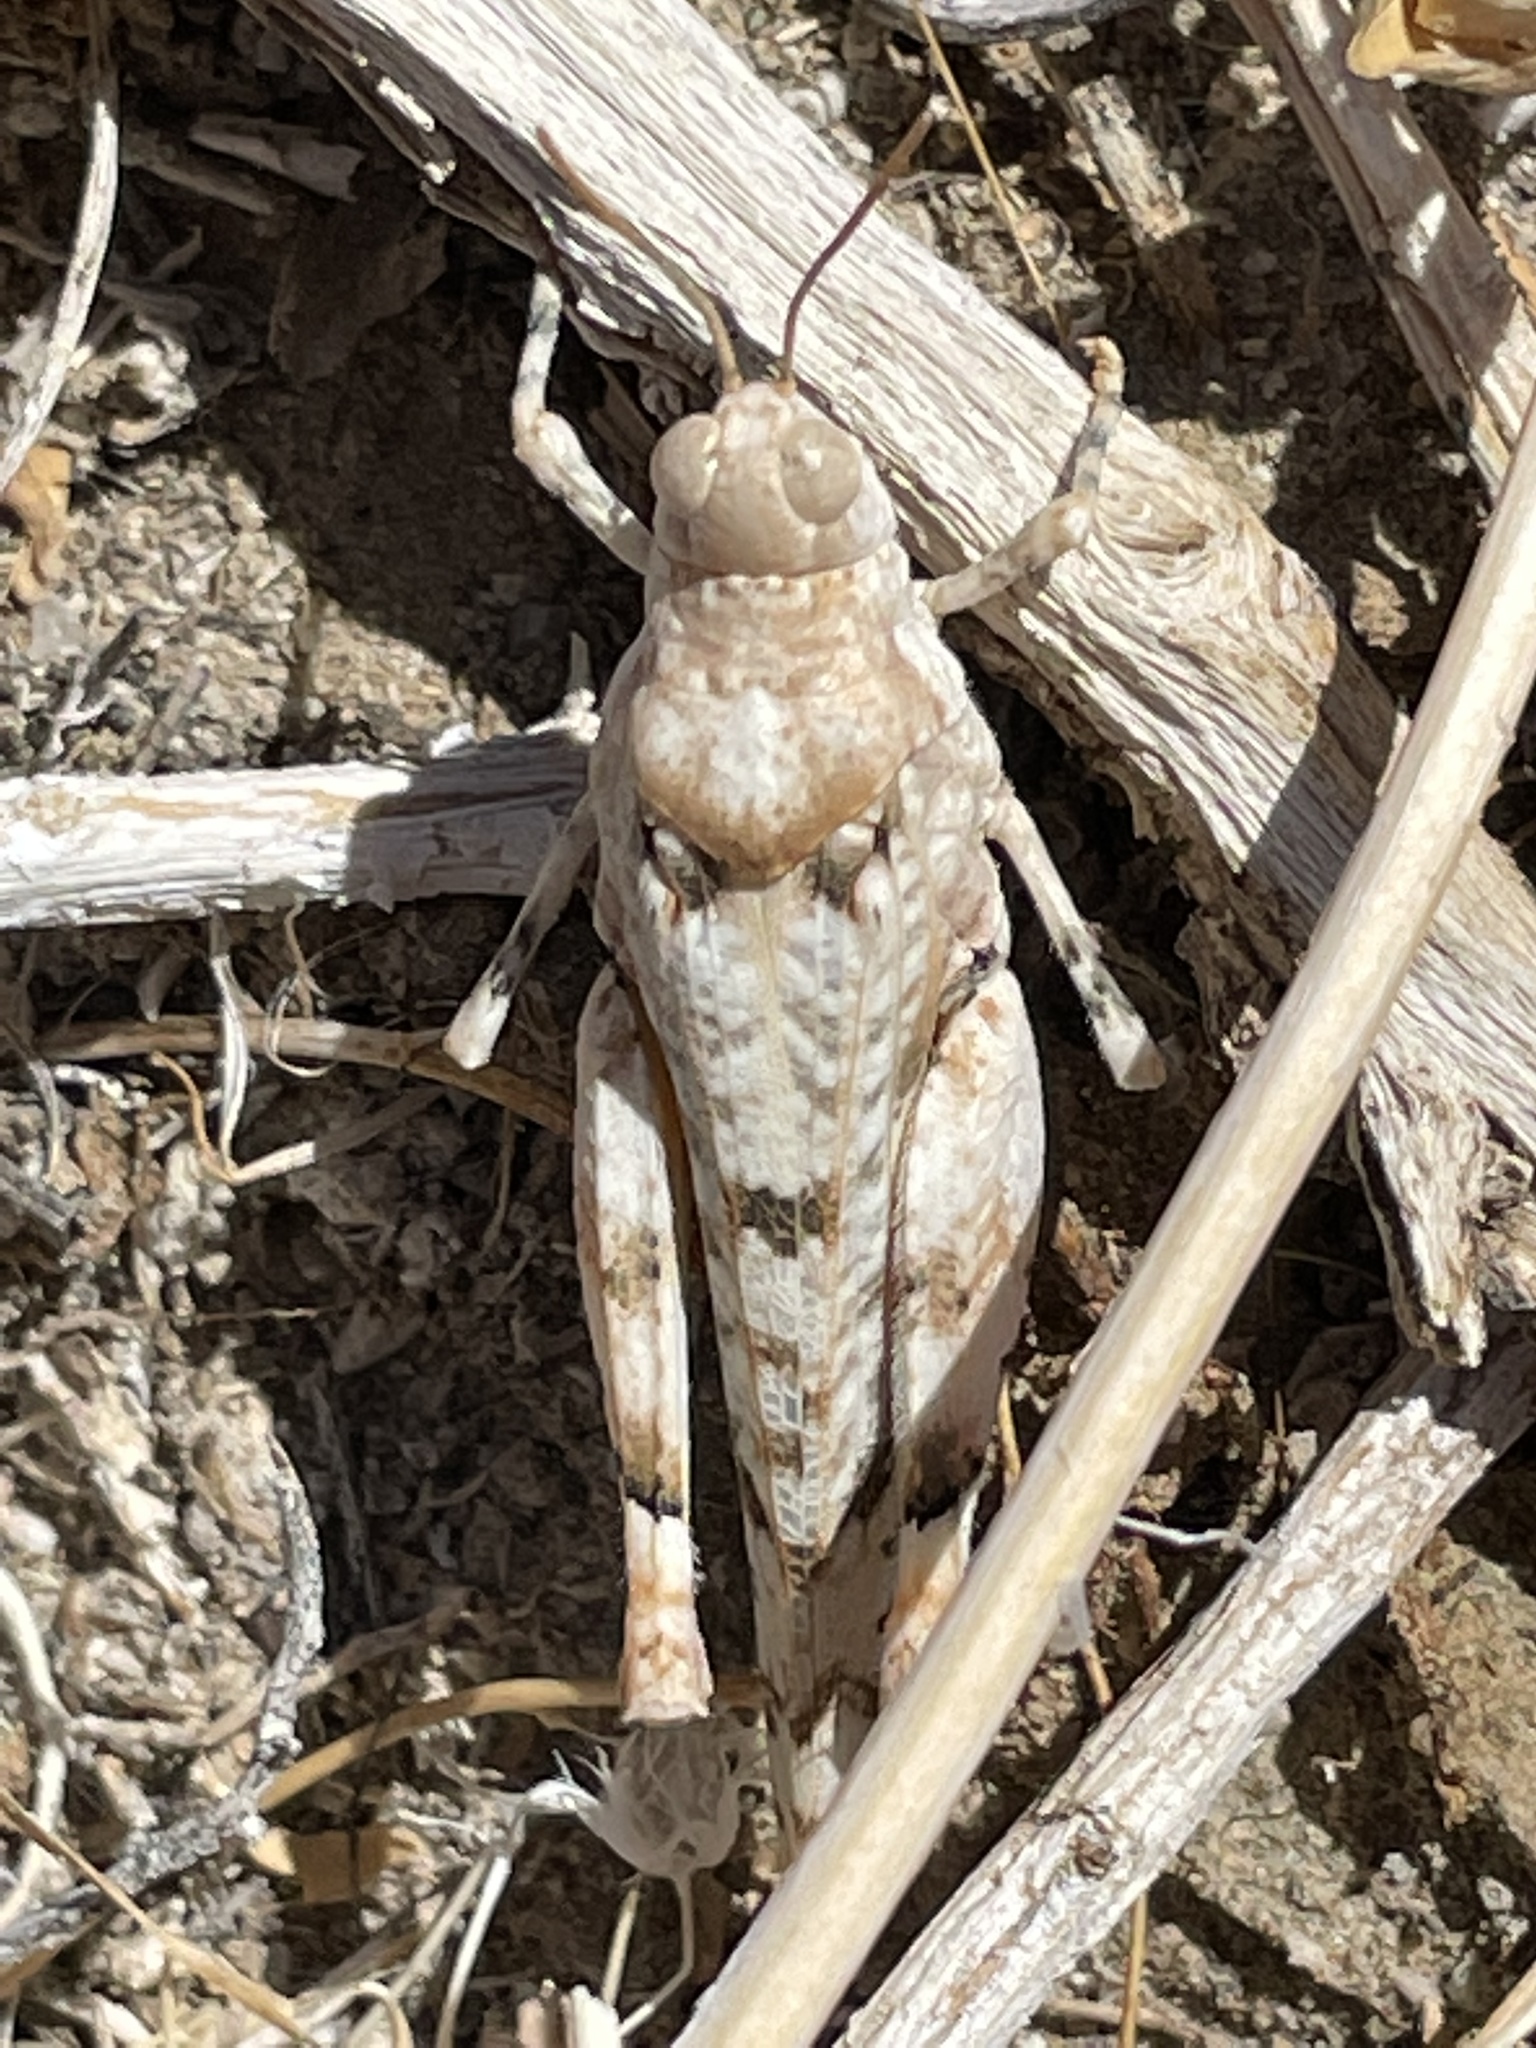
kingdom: Animalia
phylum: Arthropoda
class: Insecta
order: Orthoptera
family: Acrididae
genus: Cibolacris
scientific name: Cibolacris parviceps
